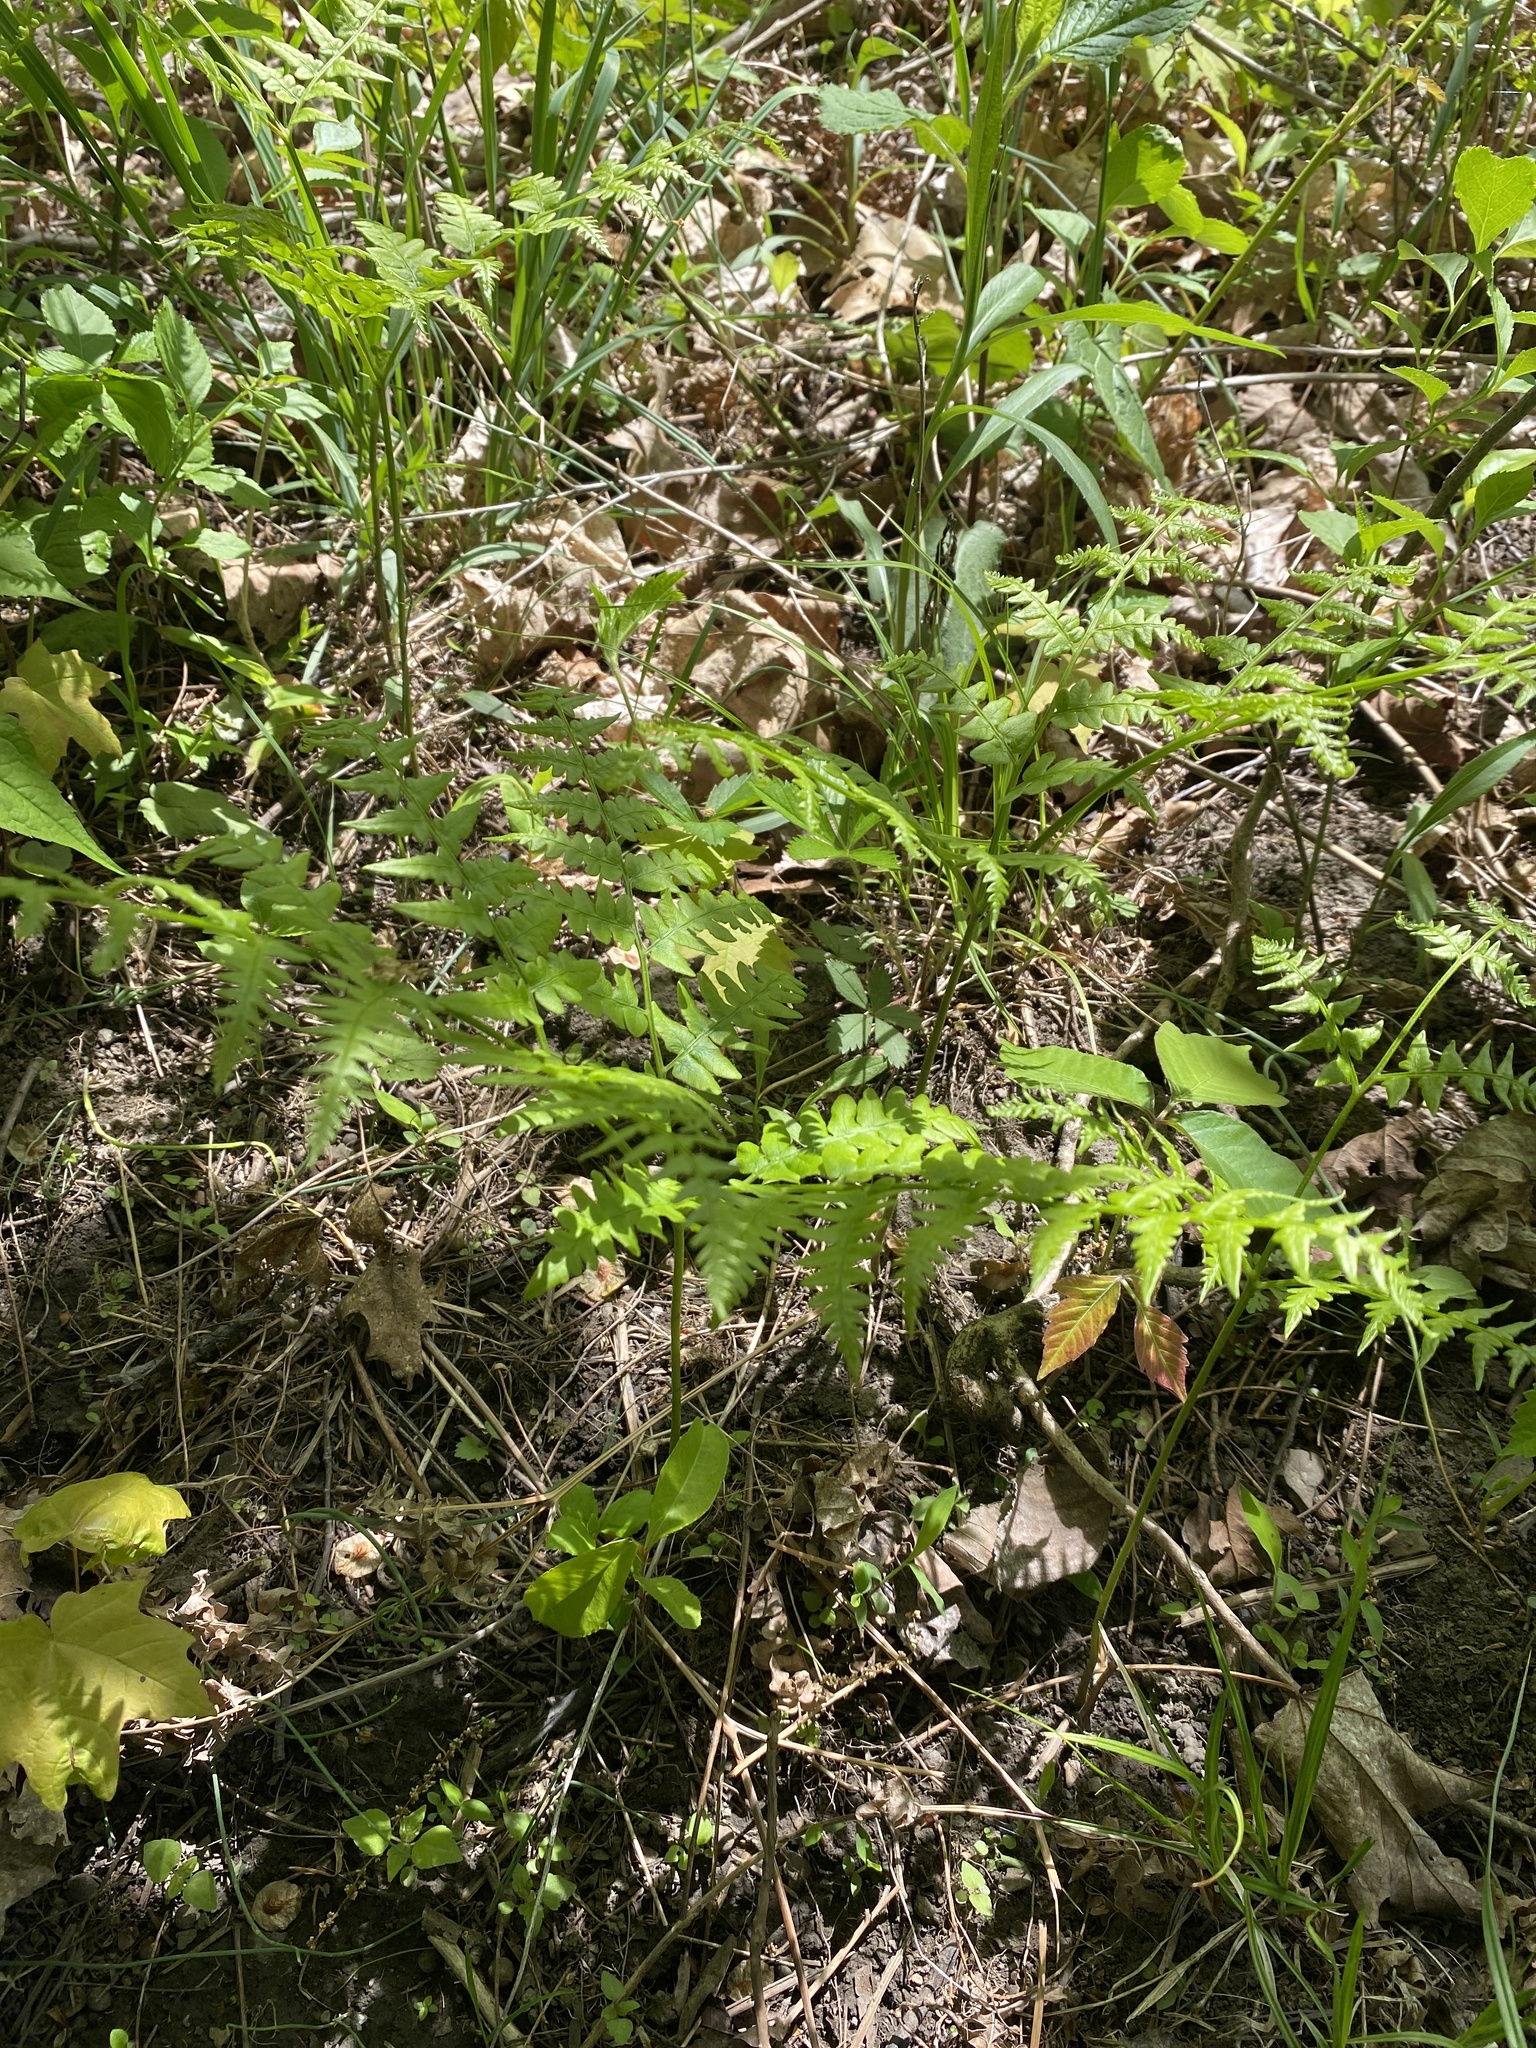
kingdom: Plantae
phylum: Tracheophyta
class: Polypodiopsida
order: Polypodiales
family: Dennstaedtiaceae
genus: Pteridium
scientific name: Pteridium aquilinum
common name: Bracken
